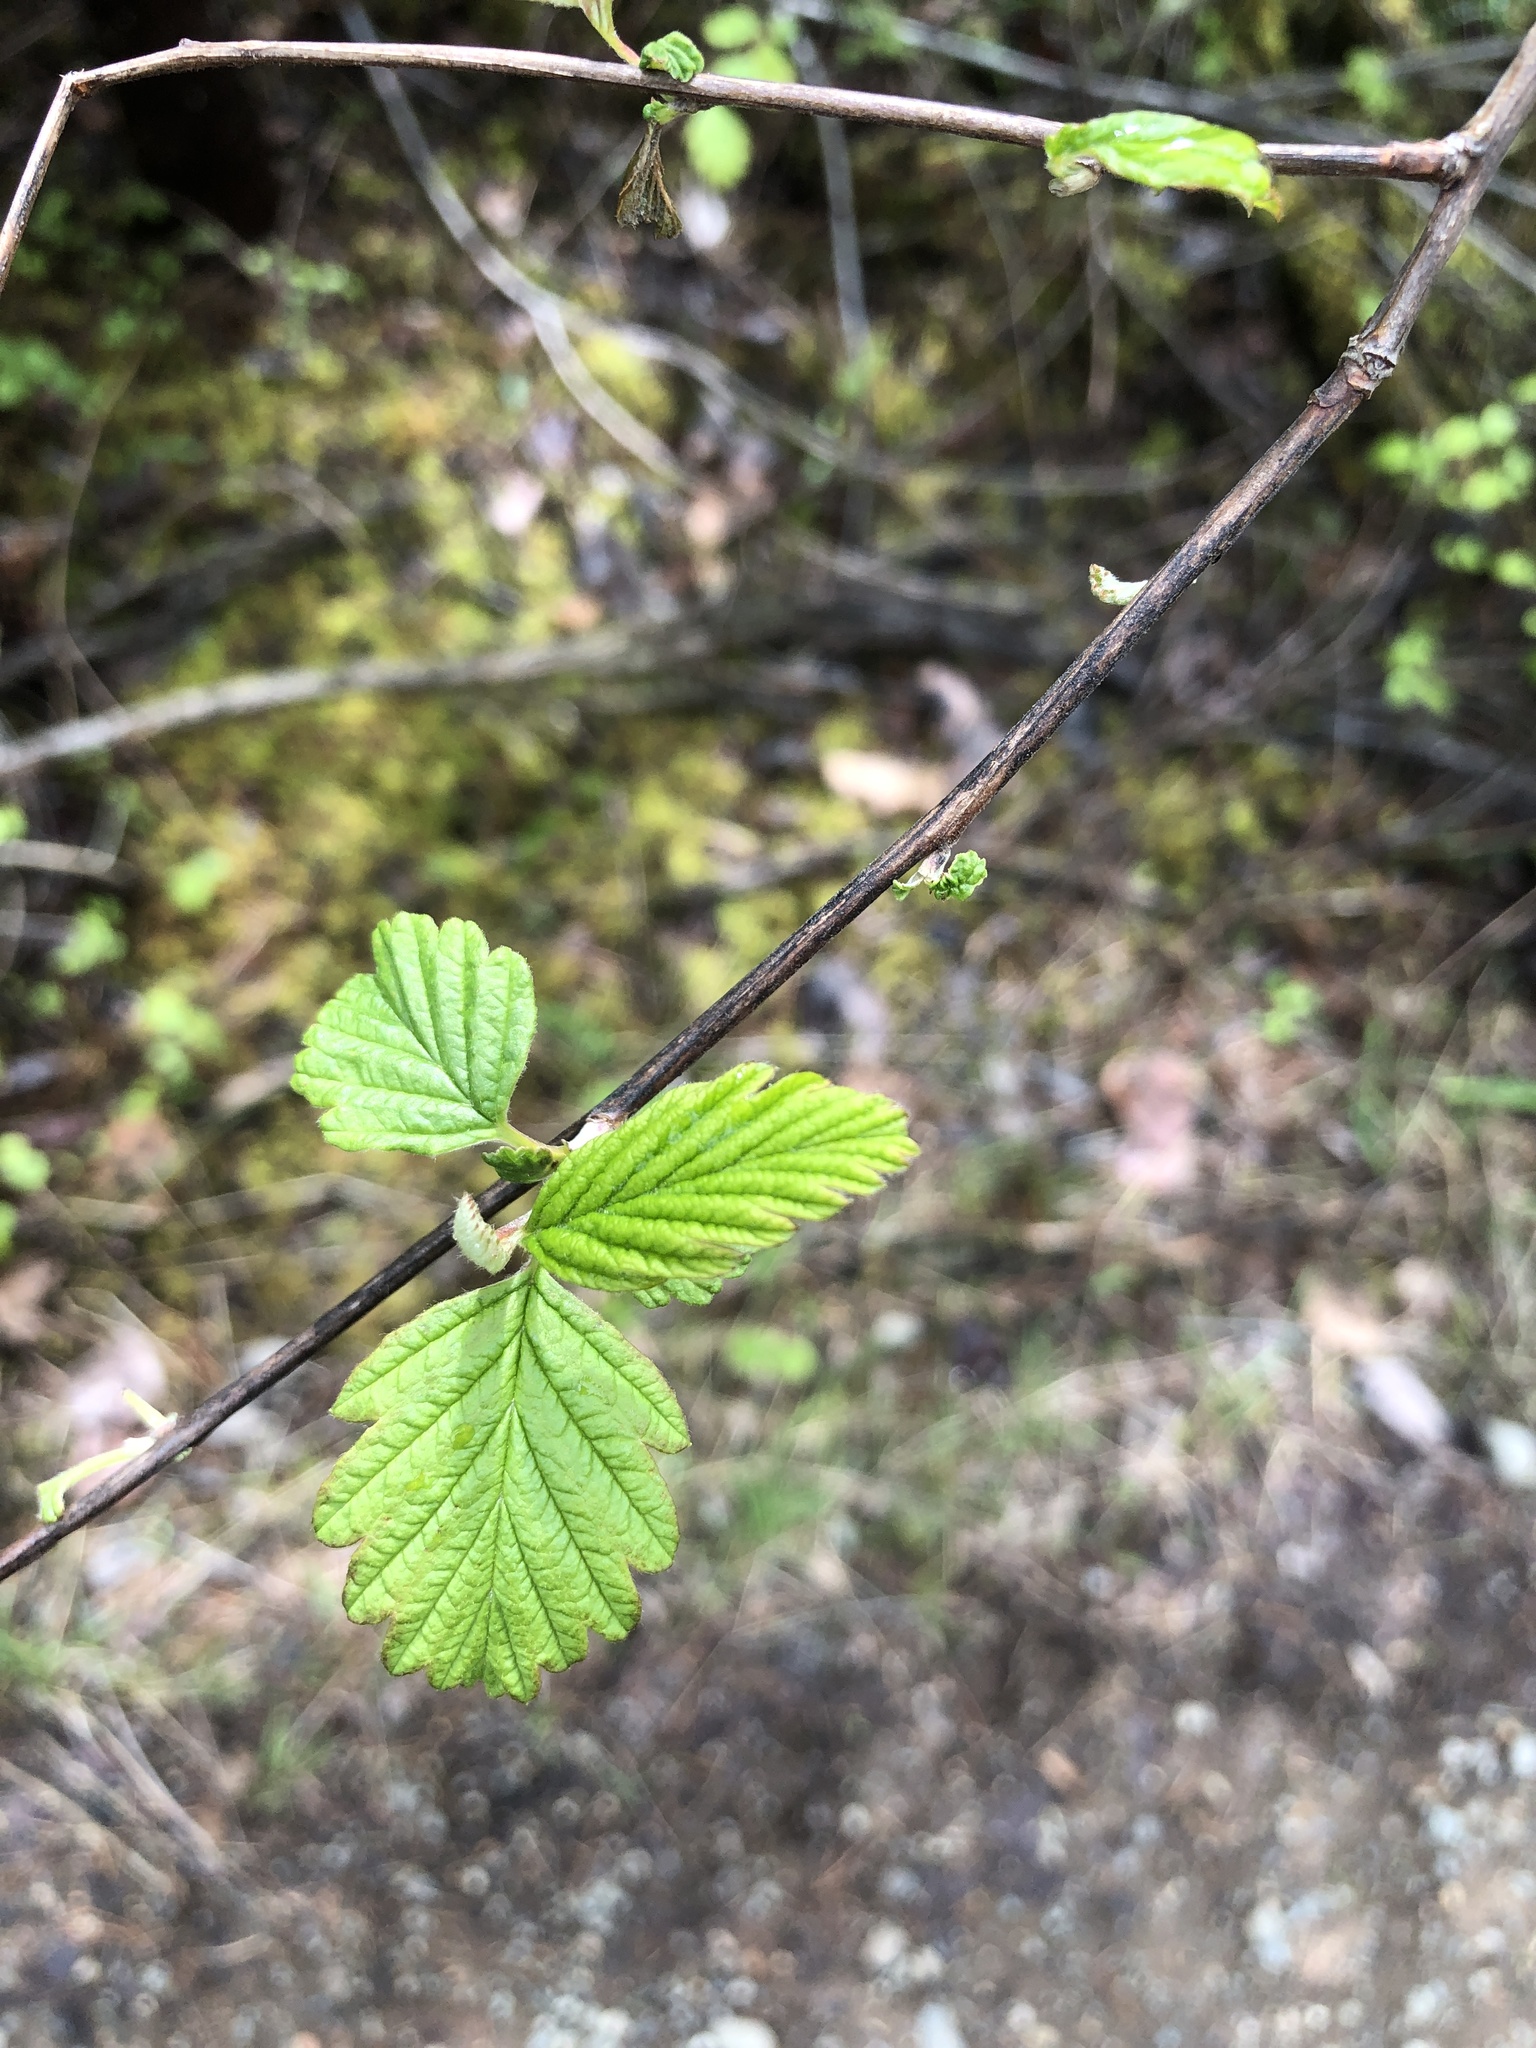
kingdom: Plantae
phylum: Tracheophyta
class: Magnoliopsida
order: Rosales
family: Rosaceae
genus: Holodiscus
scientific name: Holodiscus discolor
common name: Oceanspray
